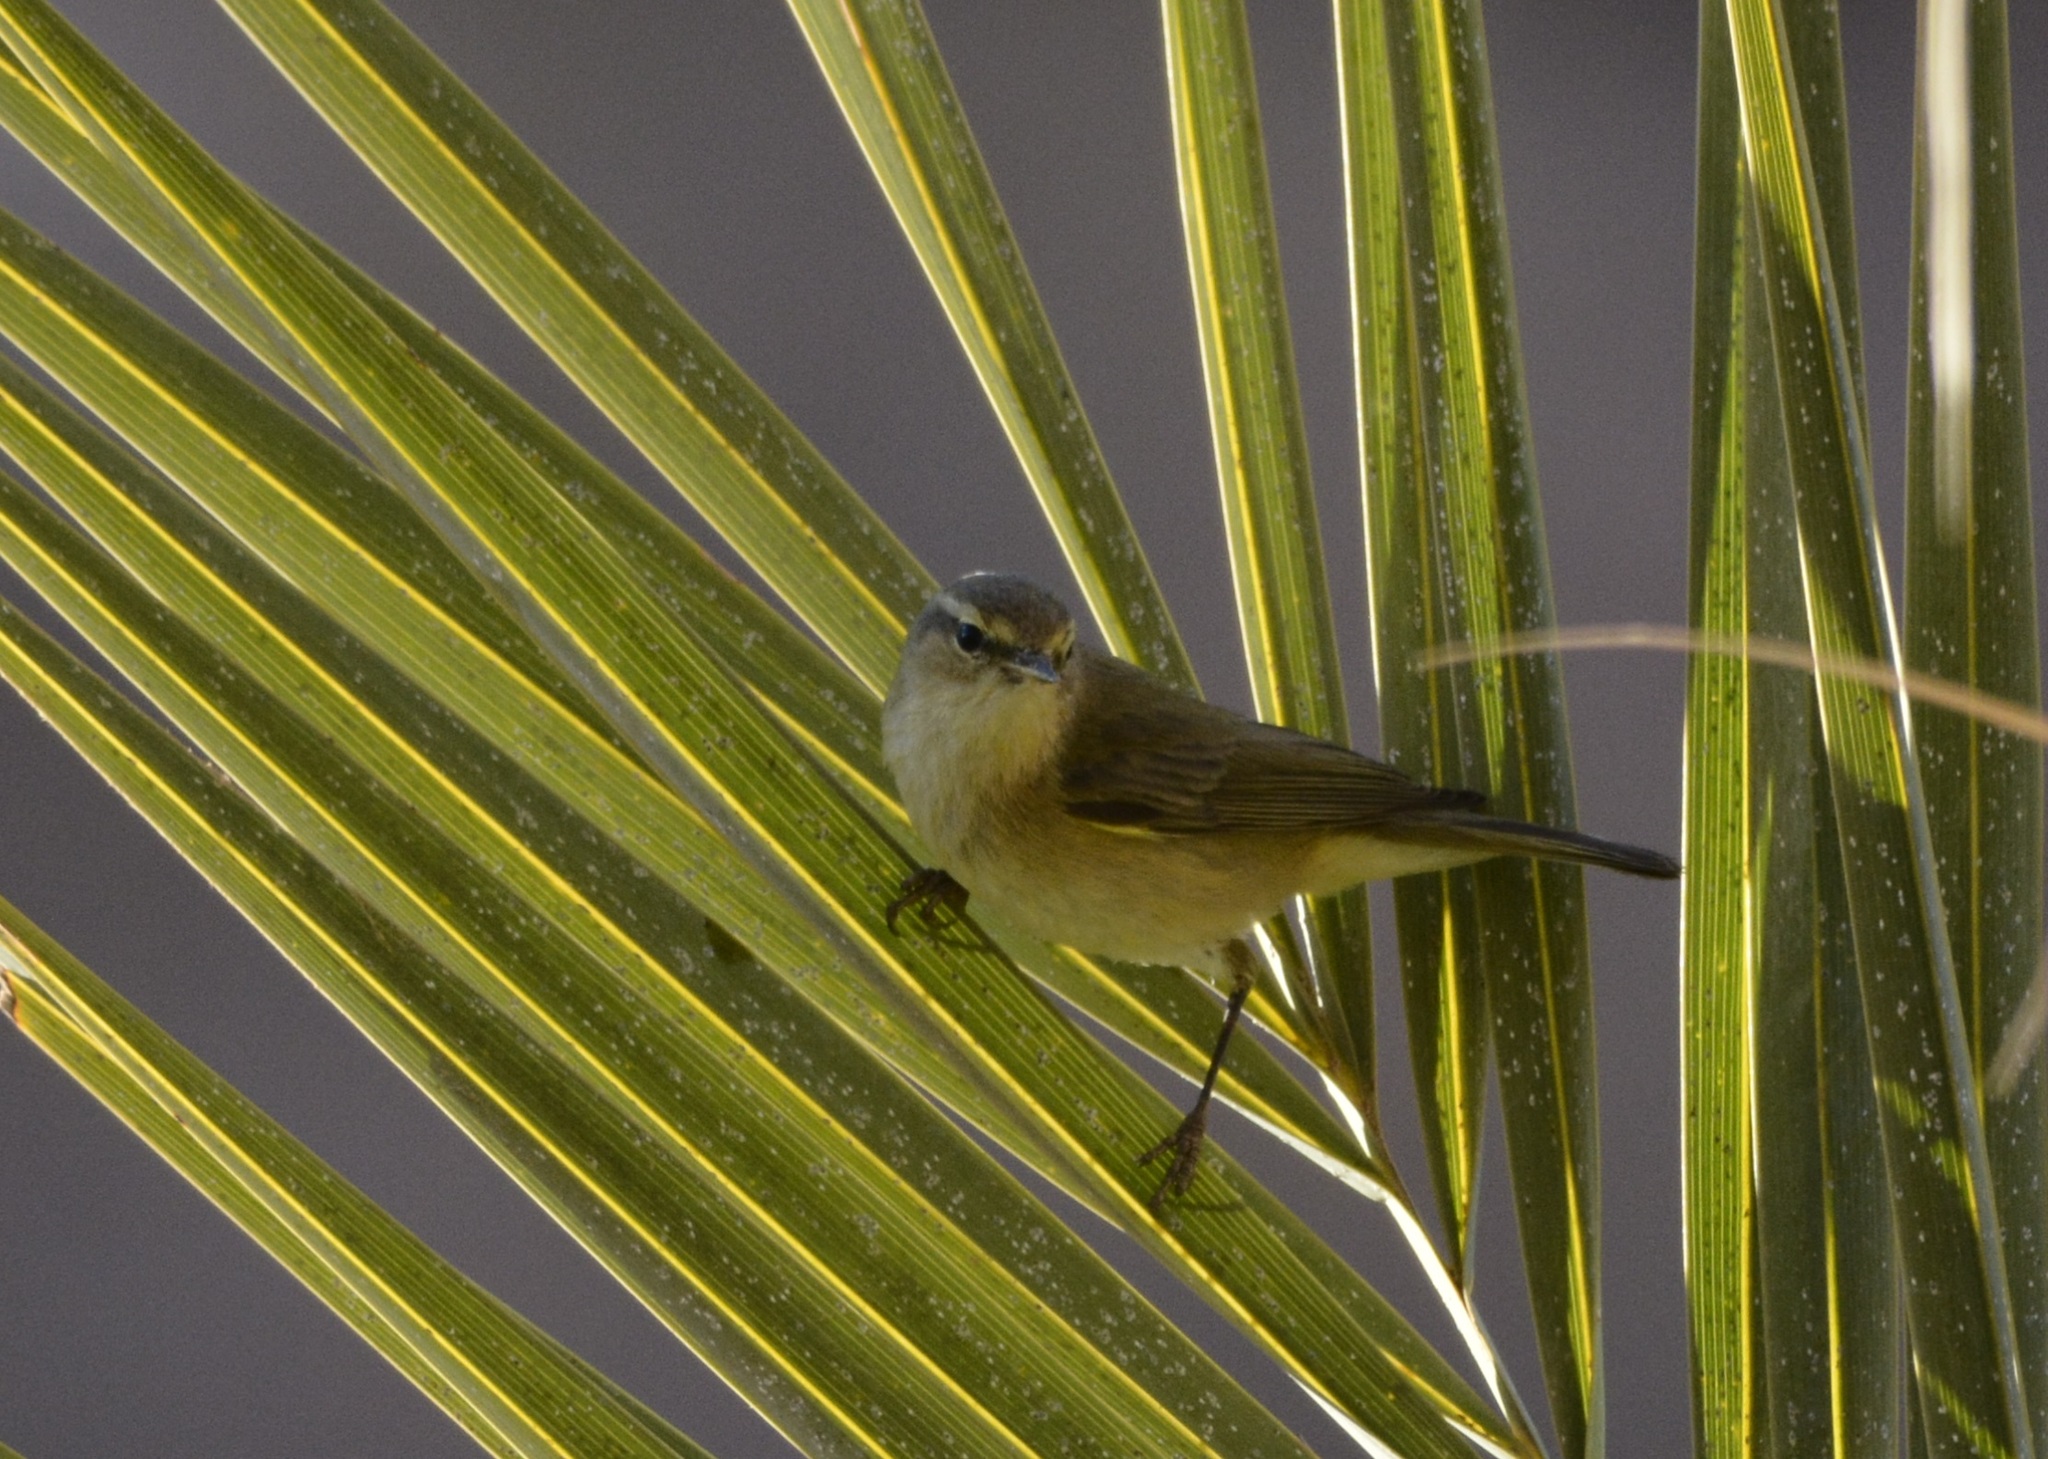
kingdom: Animalia
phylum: Chordata
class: Aves
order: Passeriformes
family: Phylloscopidae
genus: Phylloscopus
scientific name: Phylloscopus collybita
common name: Common chiffchaff
